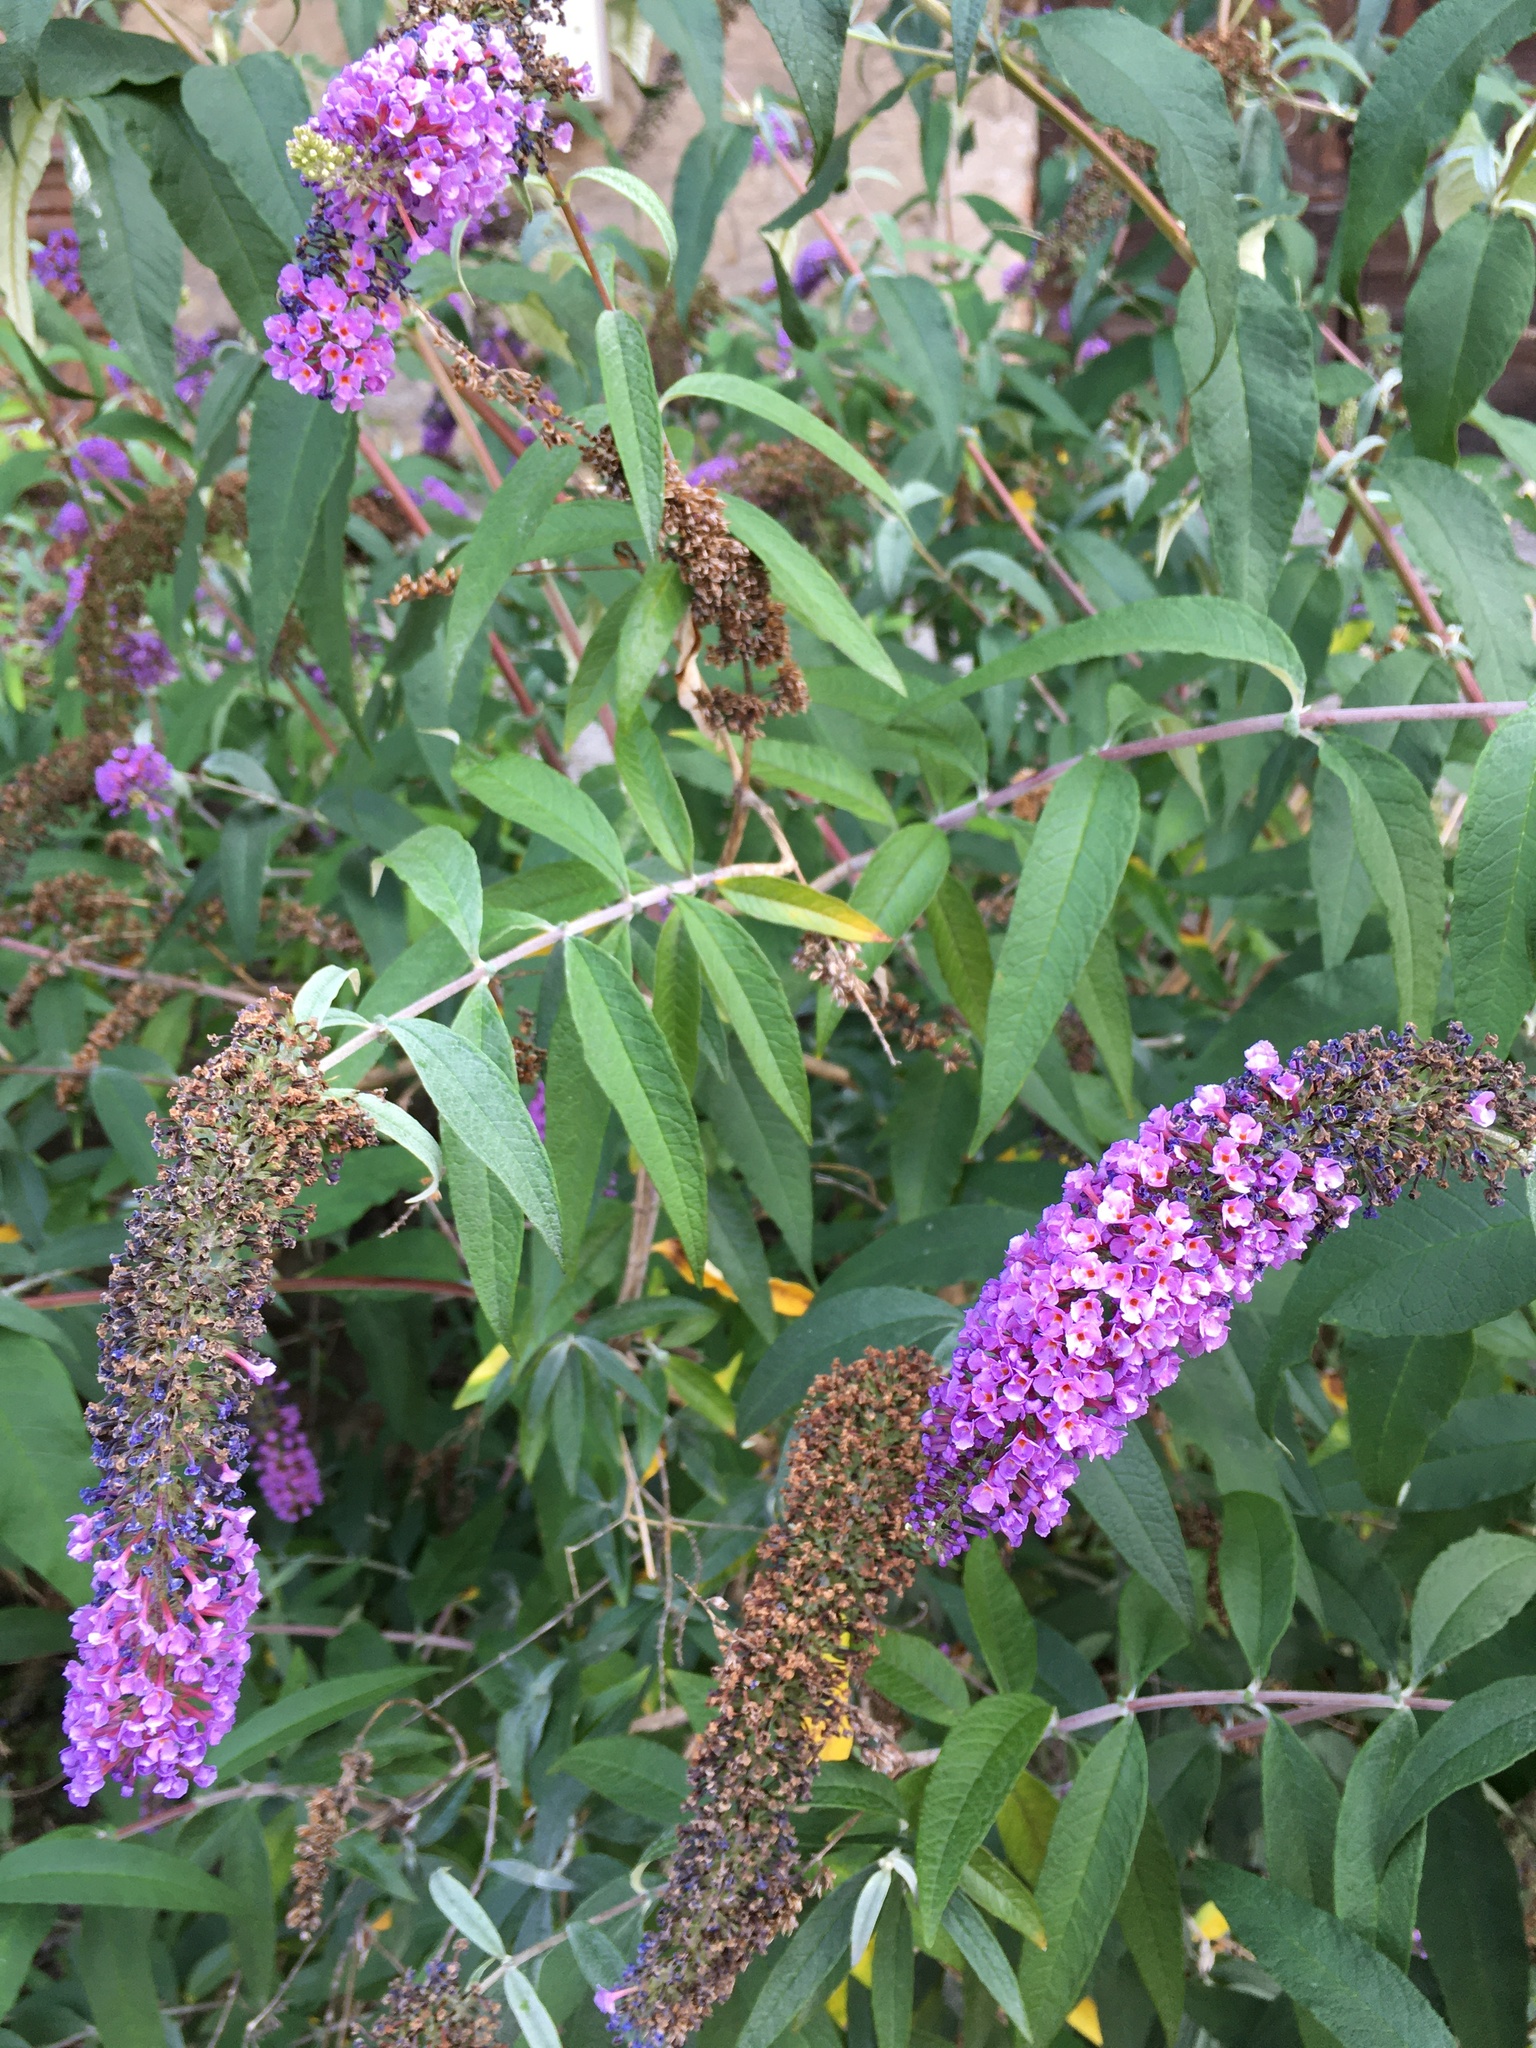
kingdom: Plantae
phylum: Tracheophyta
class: Magnoliopsida
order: Lamiales
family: Scrophulariaceae
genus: Buddleja
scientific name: Buddleja davidii
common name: Butterfly-bush
